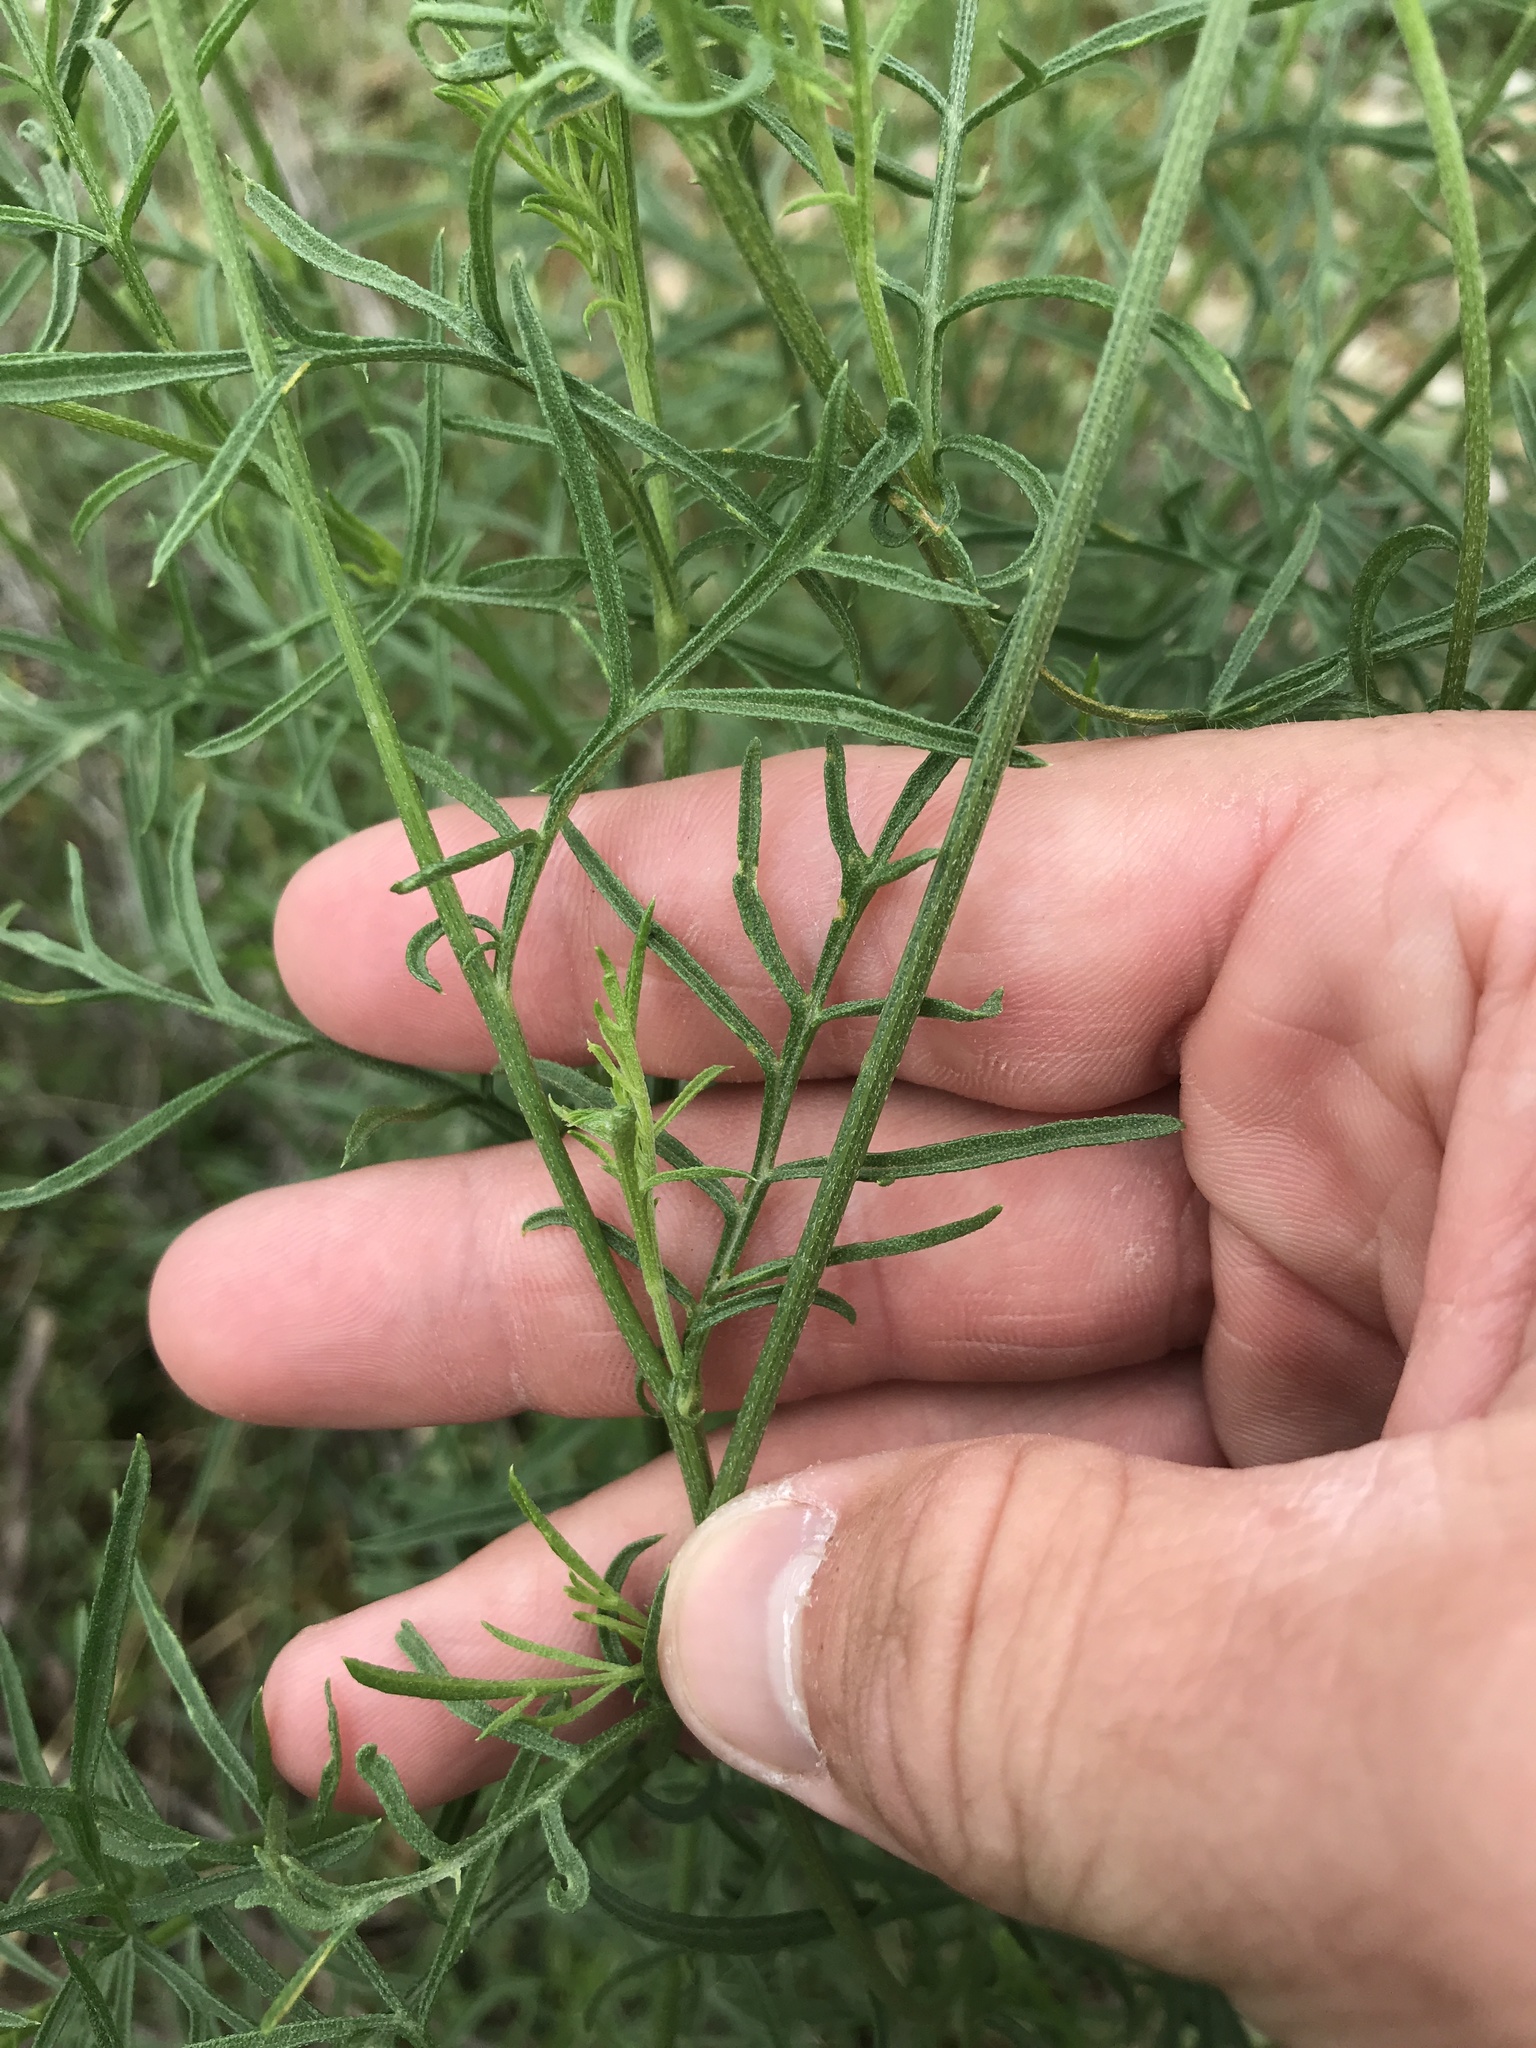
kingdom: Plantae
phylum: Tracheophyta
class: Magnoliopsida
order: Asterales
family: Asteraceae
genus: Ratibida
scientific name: Ratibida columnifera
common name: Prairie coneflower
